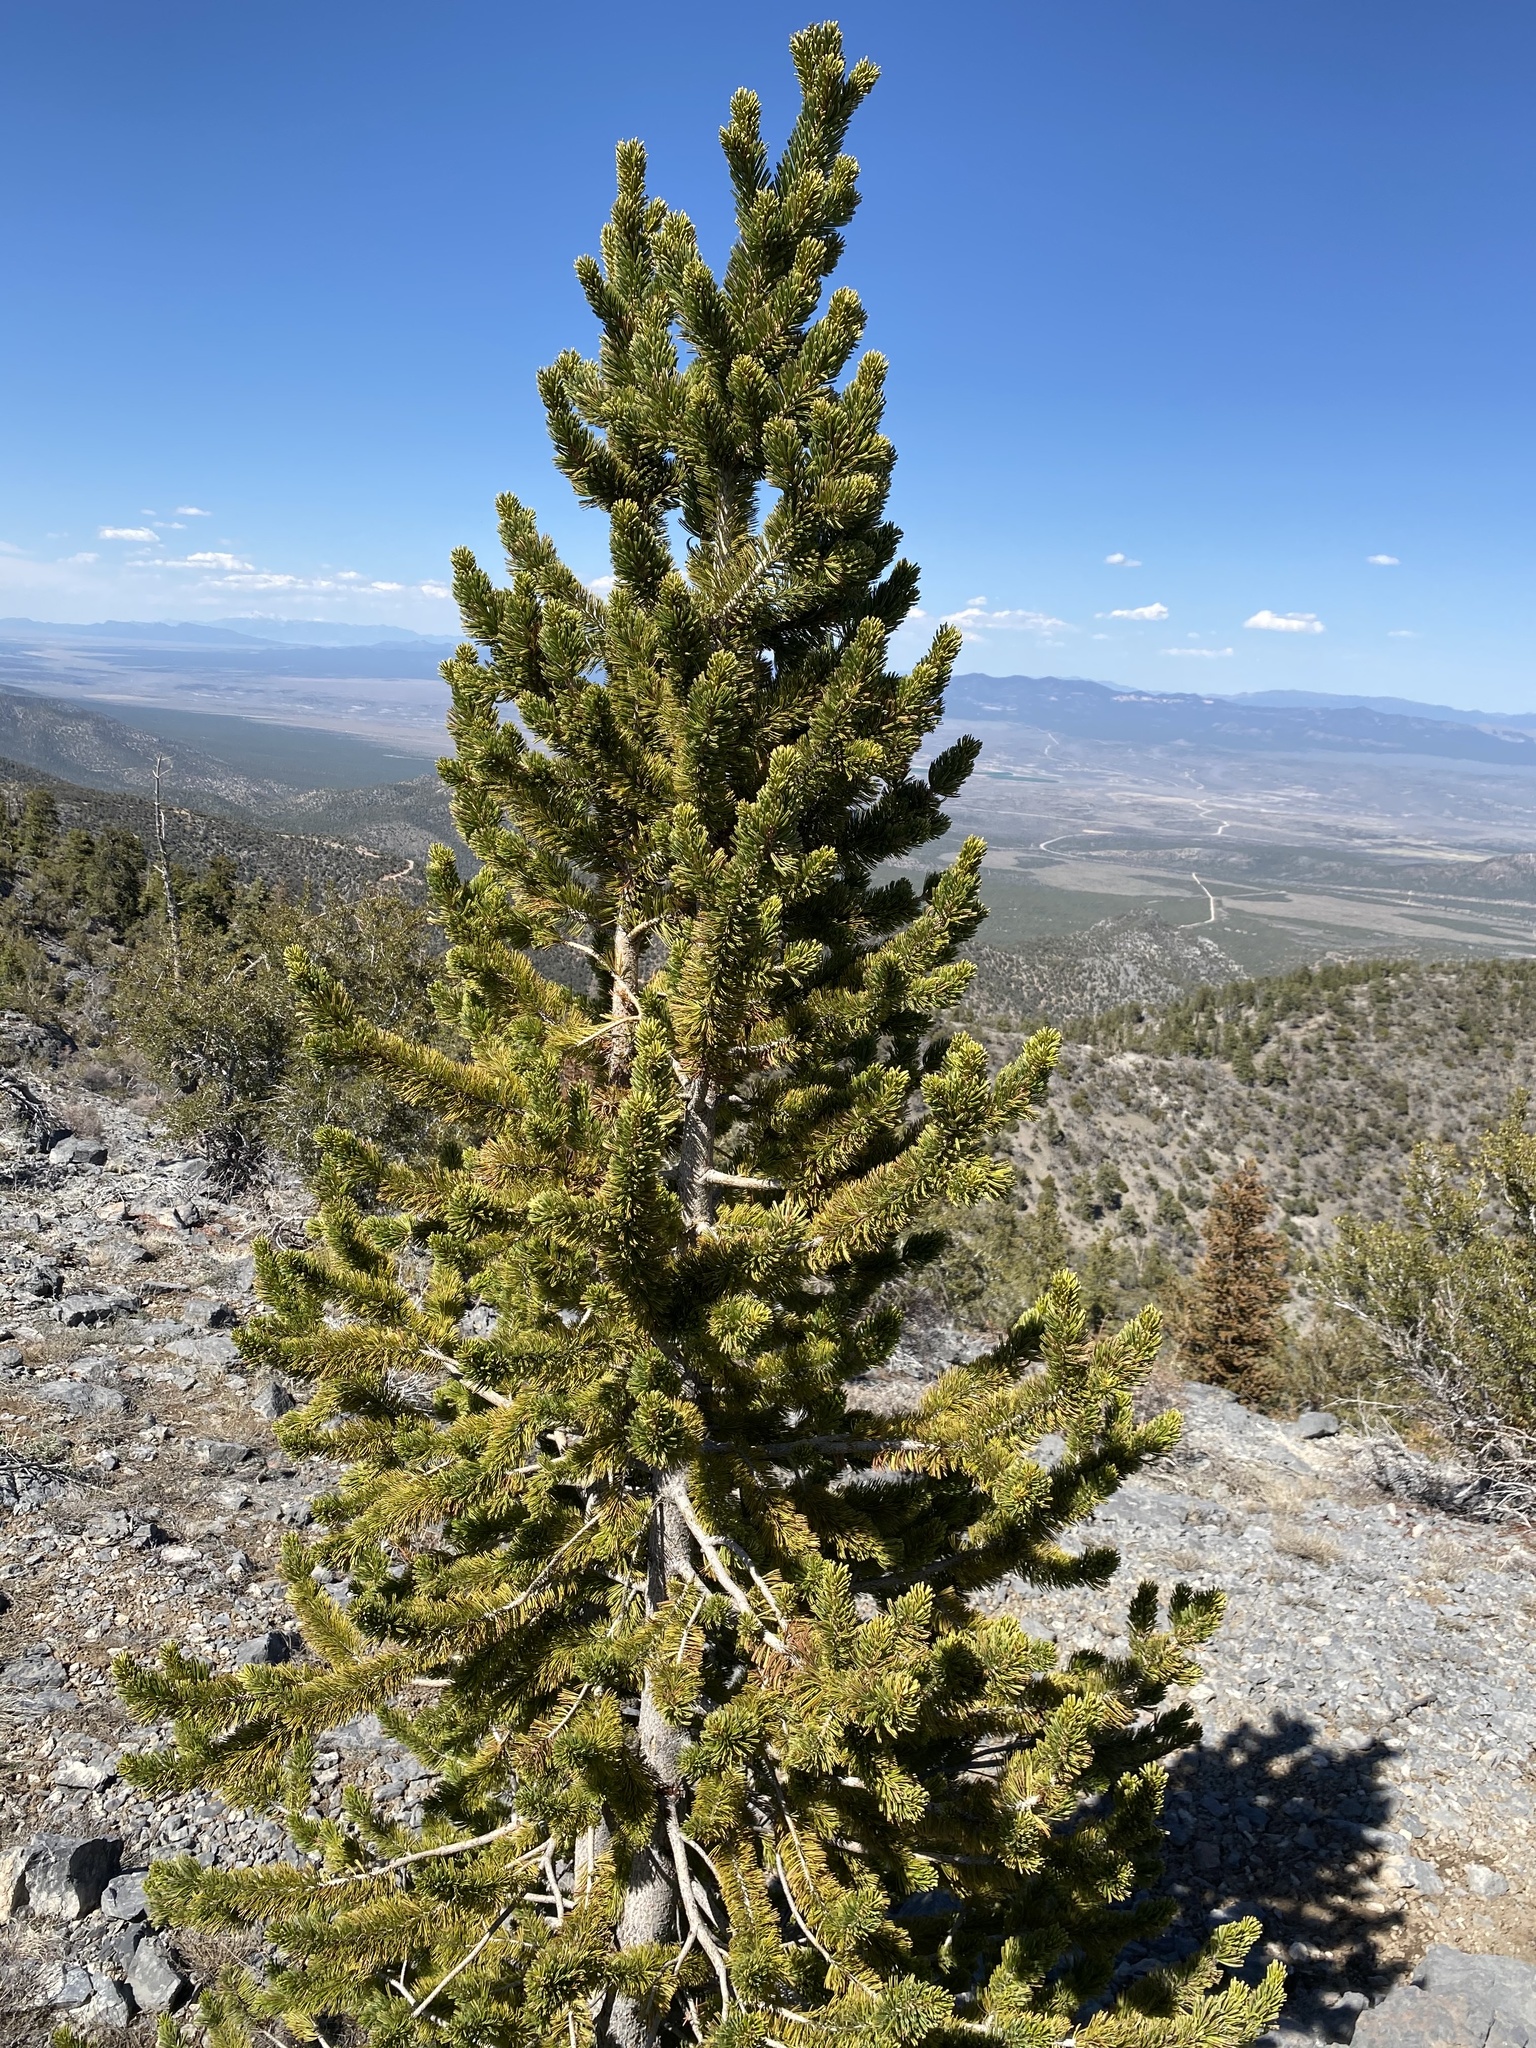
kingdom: Plantae
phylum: Tracheophyta
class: Pinopsida
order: Pinales
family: Pinaceae
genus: Pinus
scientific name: Pinus longaeva
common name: Intermountain bristlecone pine
